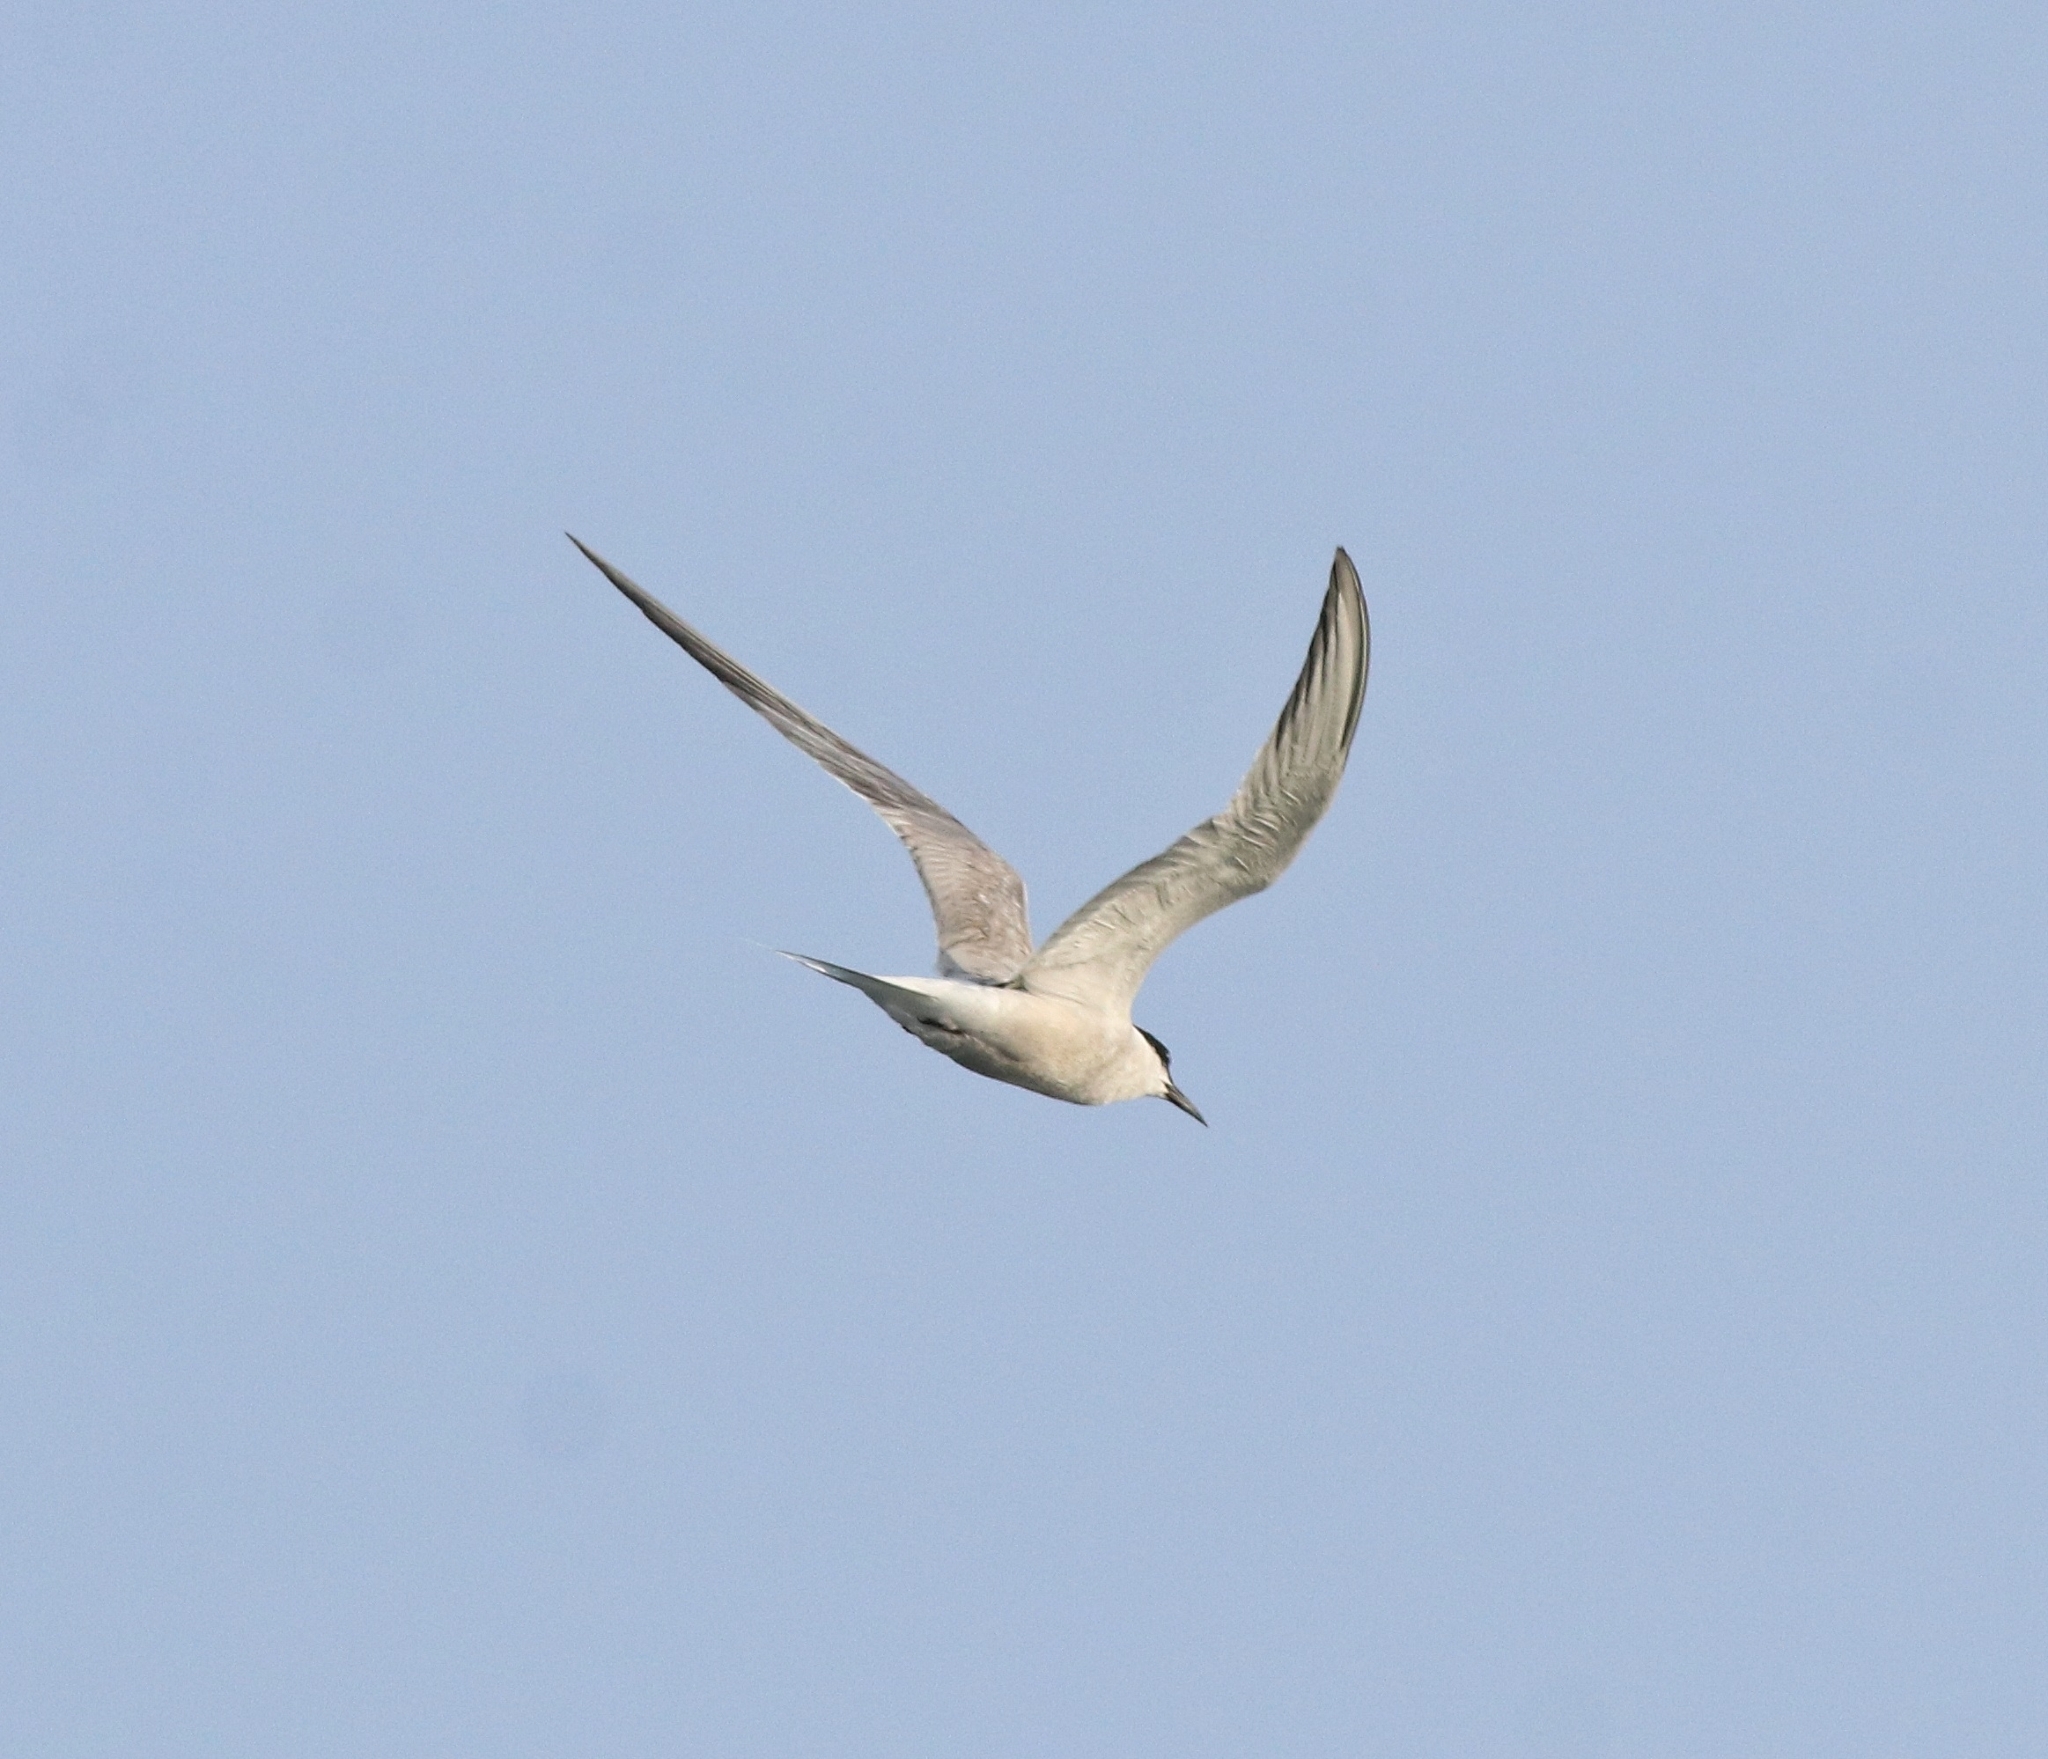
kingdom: Animalia
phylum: Chordata
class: Aves
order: Charadriiformes
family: Laridae
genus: Sterna
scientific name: Sterna hirundo
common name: Common tern
